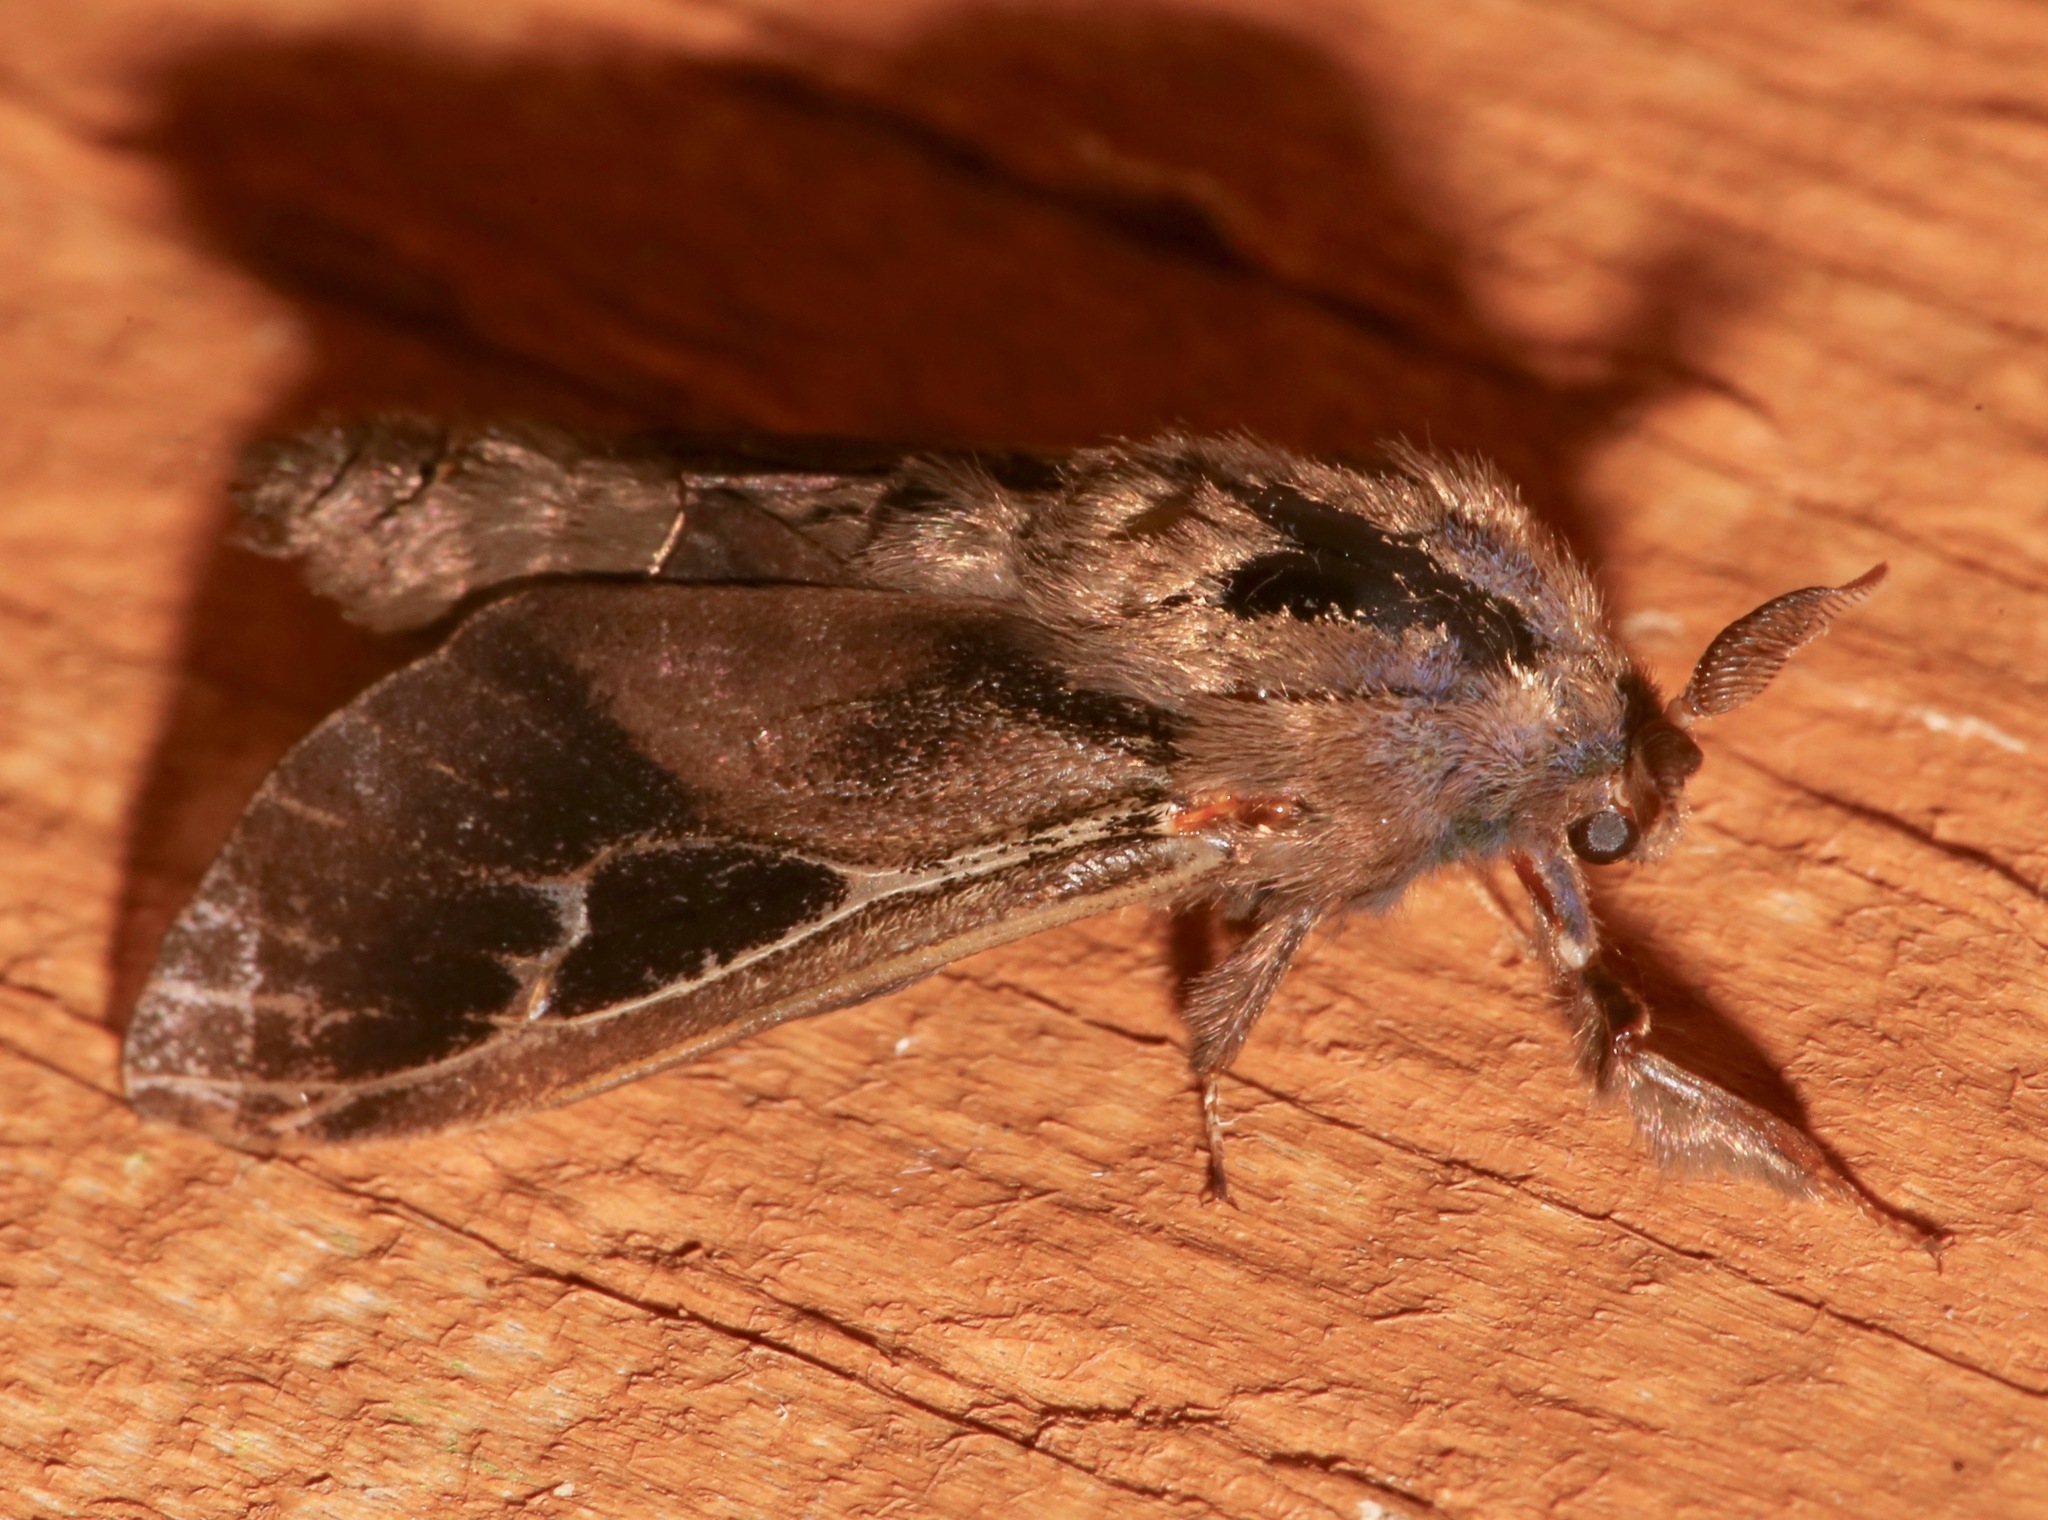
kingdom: Animalia
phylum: Arthropoda
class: Insecta
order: Lepidoptera
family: Psychidae
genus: Oiketicus
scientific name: Oiketicus
